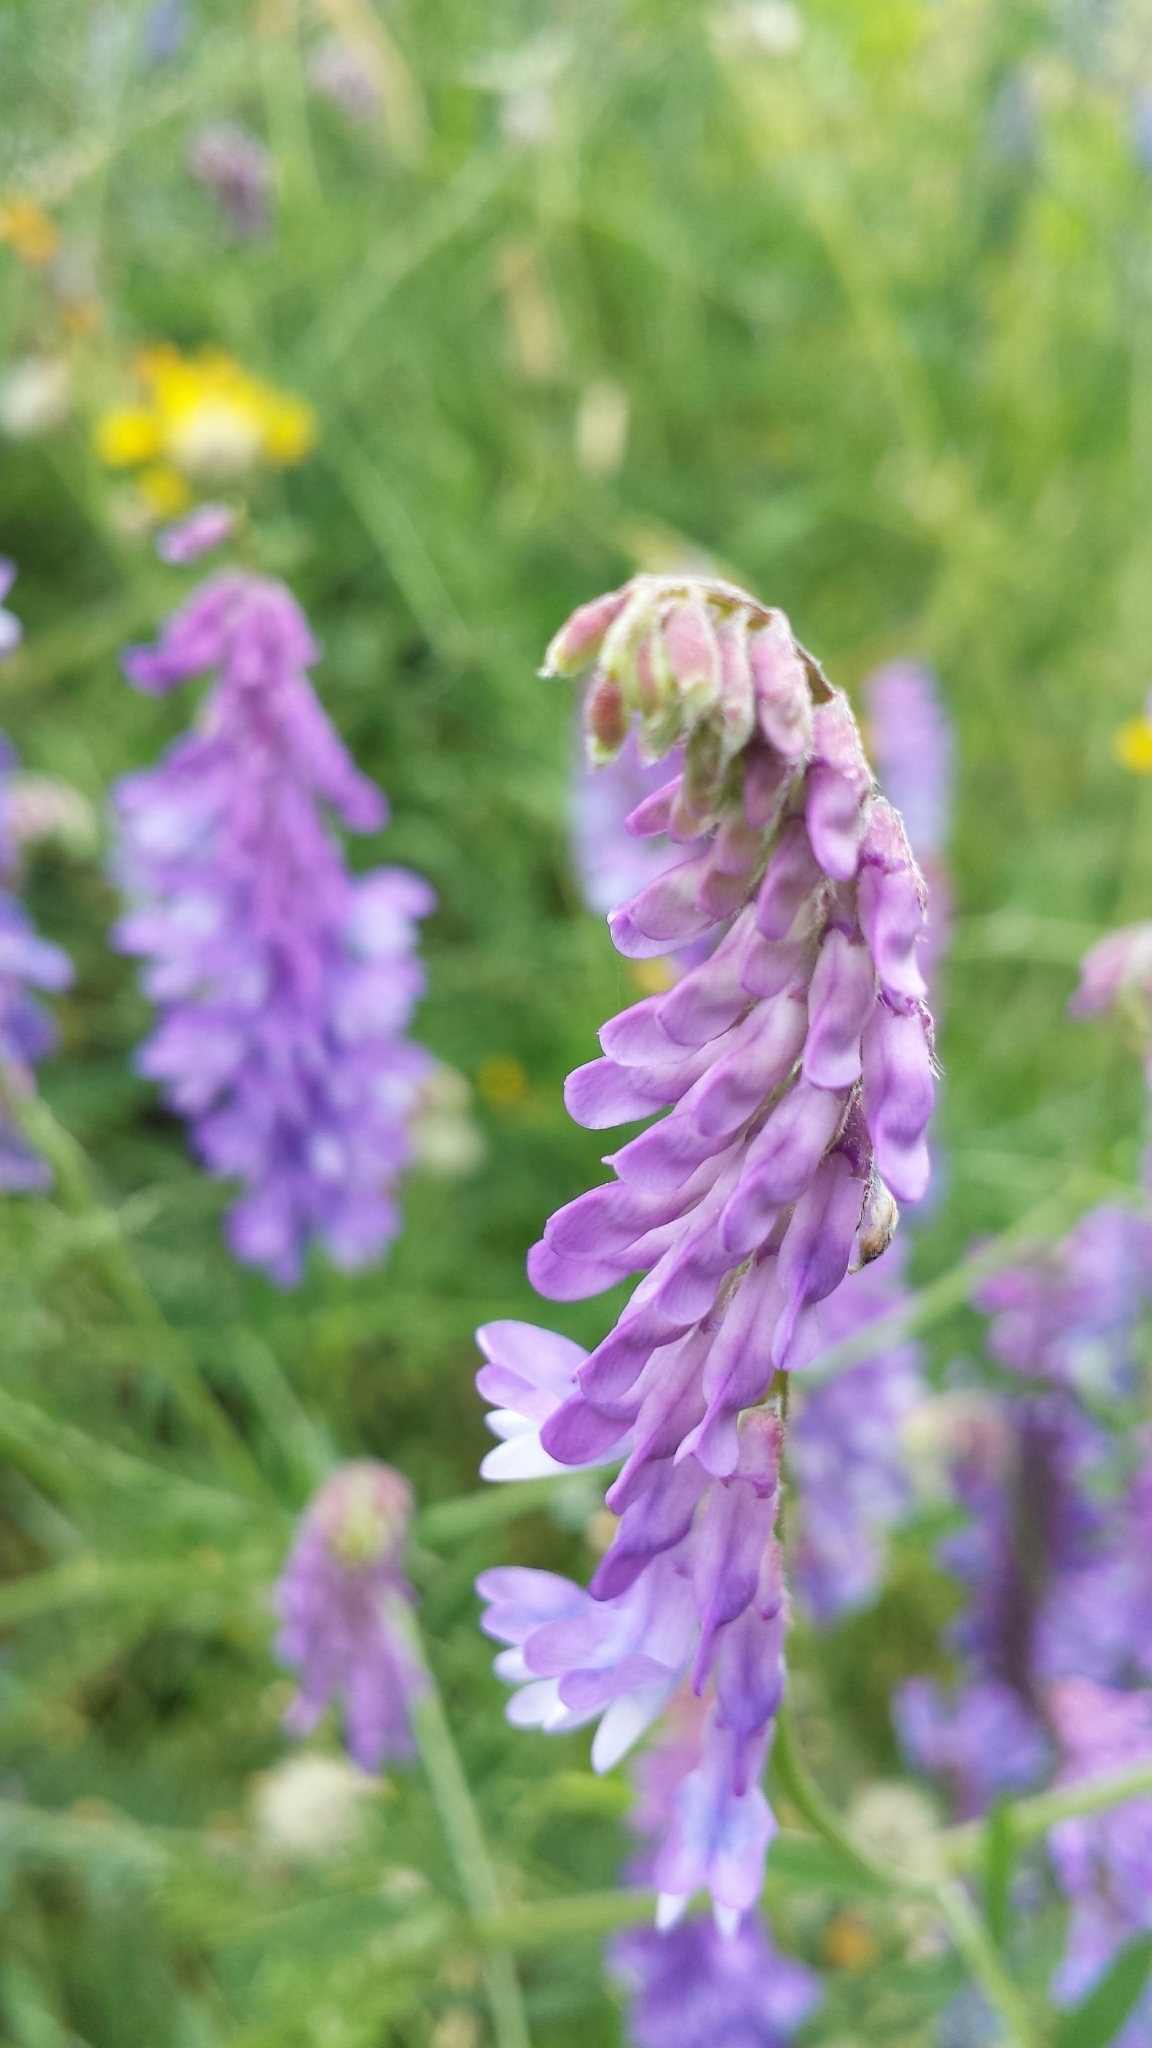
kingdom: Plantae
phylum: Tracheophyta
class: Magnoliopsida
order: Fabales
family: Fabaceae
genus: Vicia
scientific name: Vicia cracca
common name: Bird vetch
